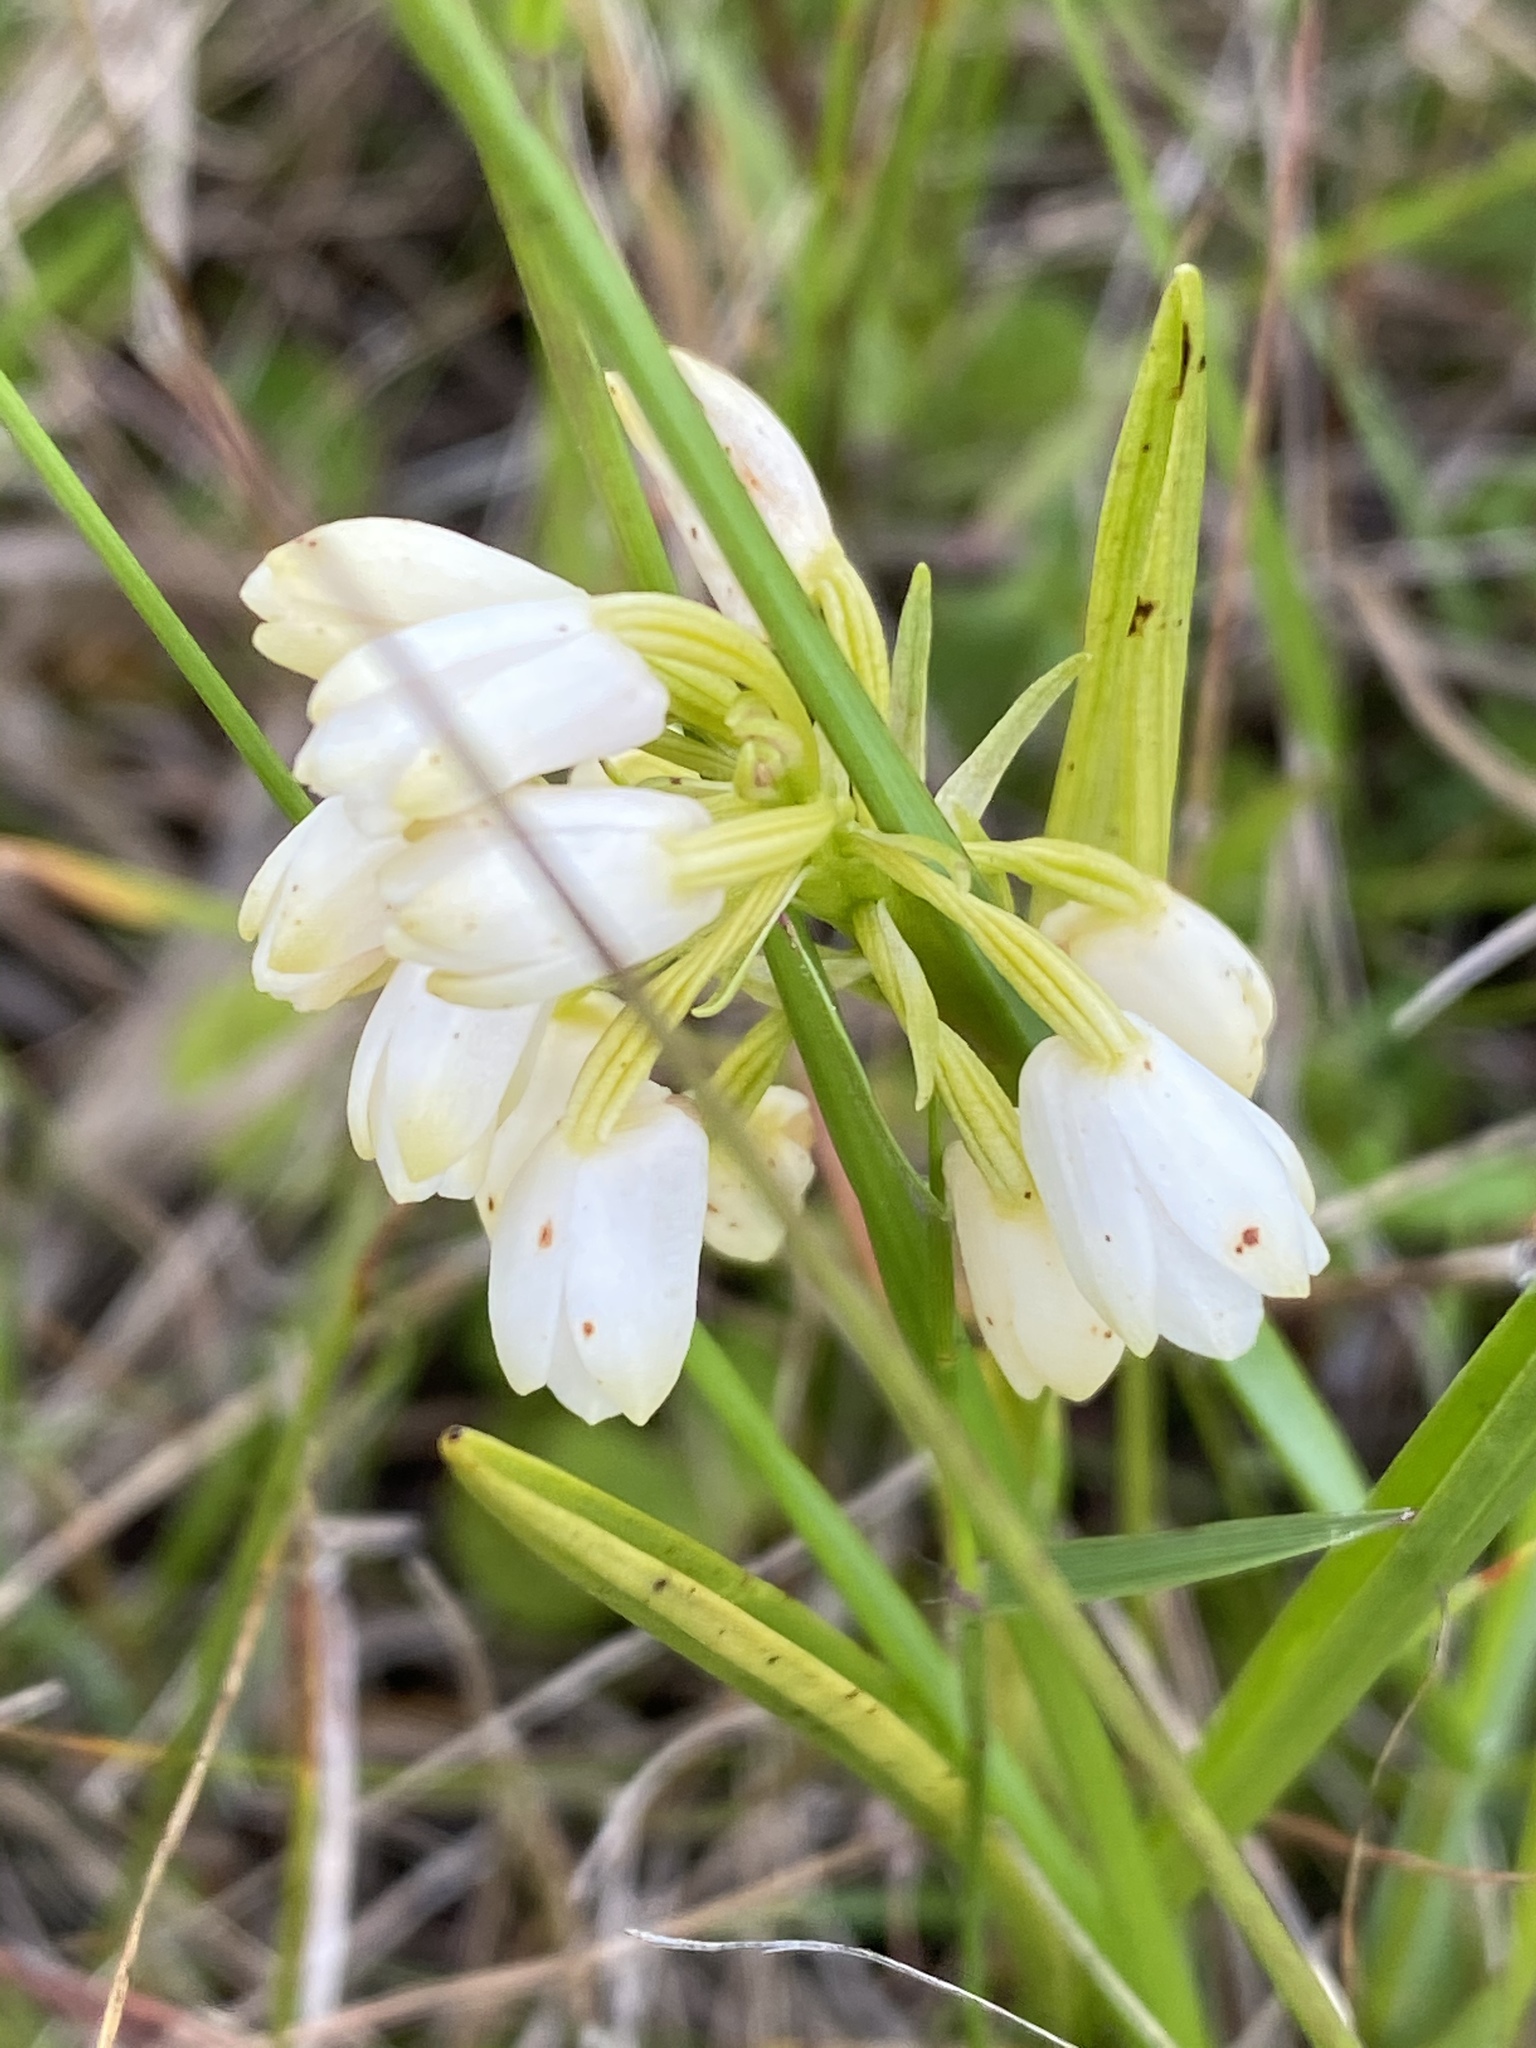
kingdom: Plantae
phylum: Tracheophyta
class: Liliopsida
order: Asparagales
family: Orchidaceae
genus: Eulophia
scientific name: Eulophia aculeata
